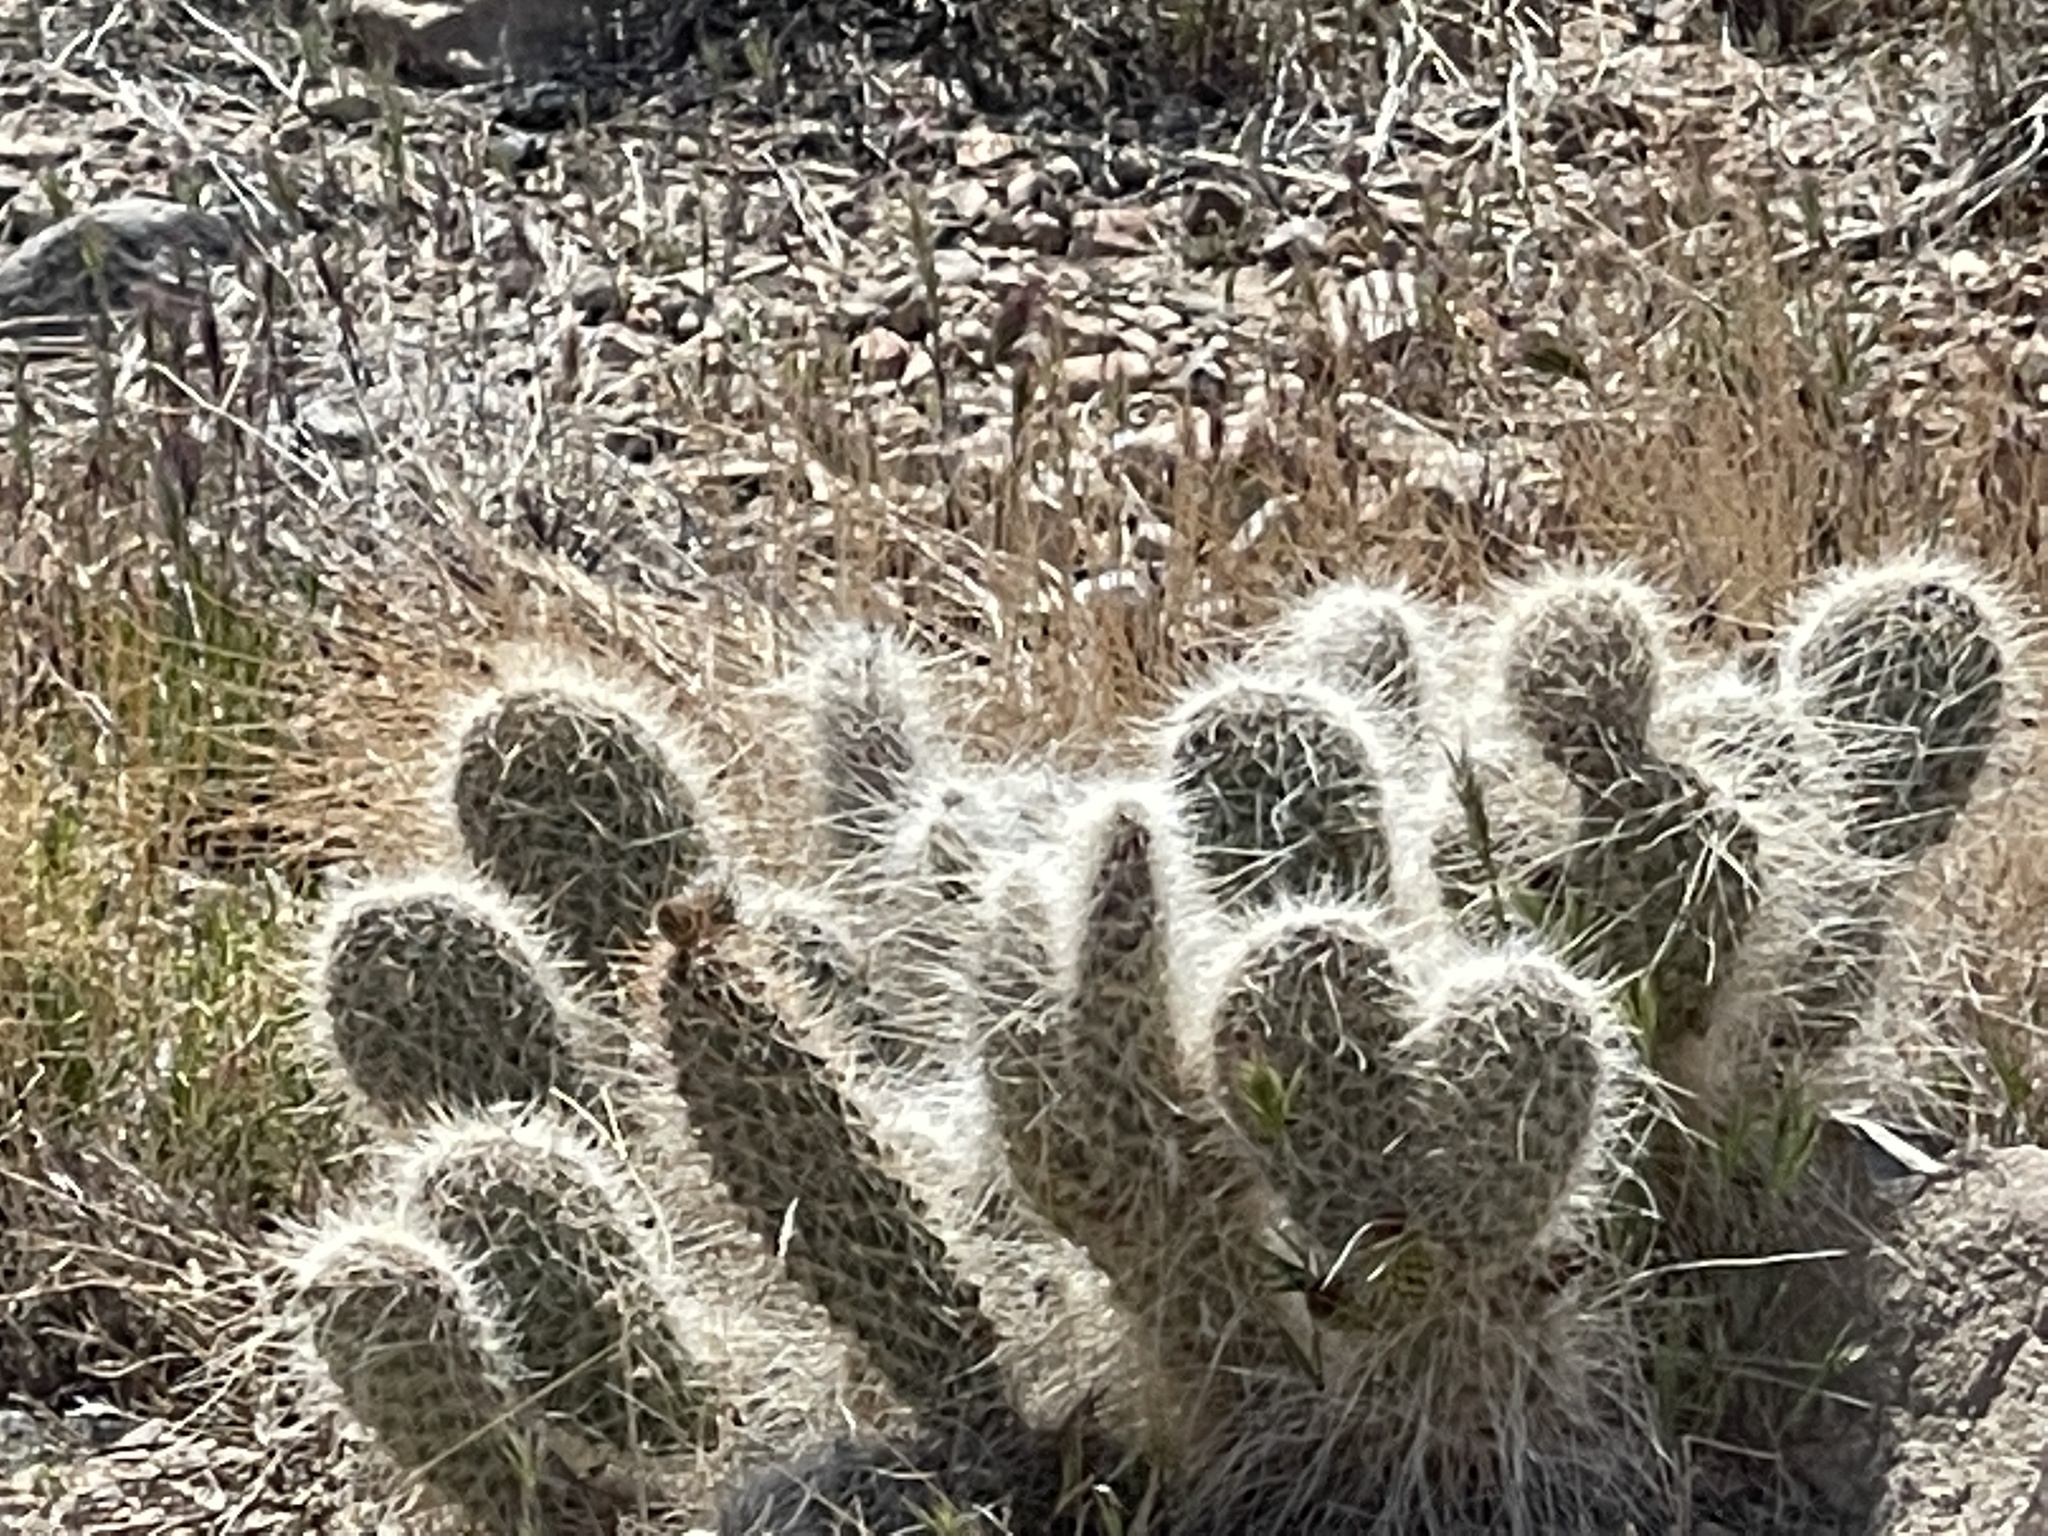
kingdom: Plantae
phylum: Tracheophyta
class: Magnoliopsida
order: Caryophyllales
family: Cactaceae
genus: Opuntia
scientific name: Opuntia polyacantha
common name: Plains prickly-pear
